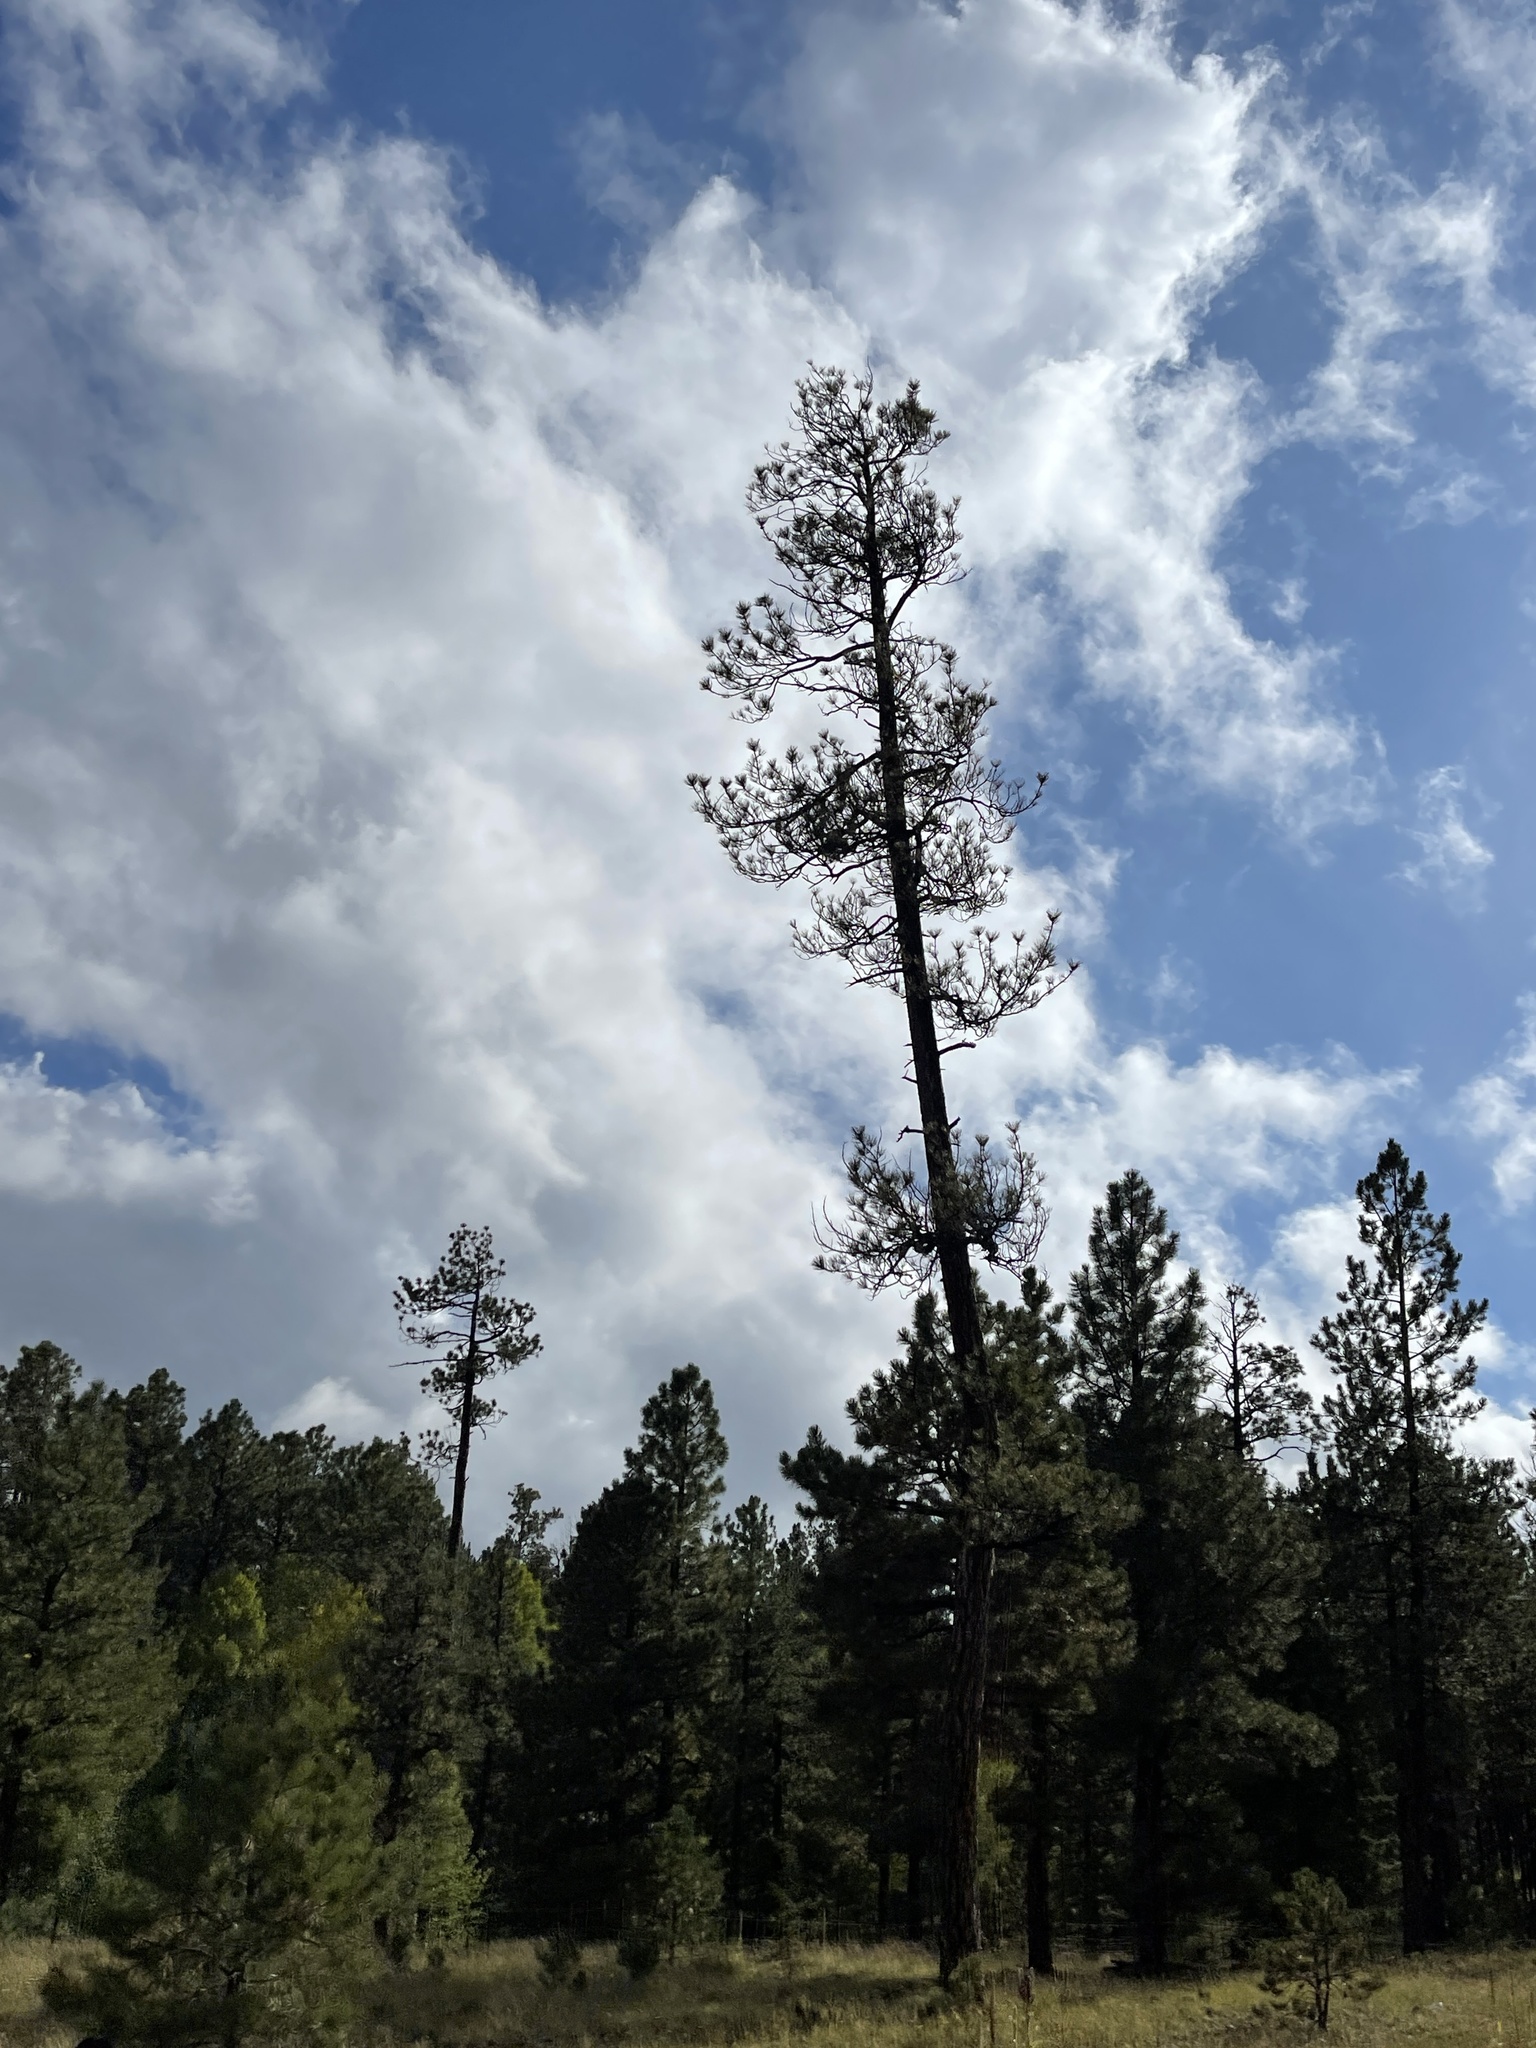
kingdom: Plantae
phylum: Tracheophyta
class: Pinopsida
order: Pinales
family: Pinaceae
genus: Pinus
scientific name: Pinus ponderosa
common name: Western yellow-pine
